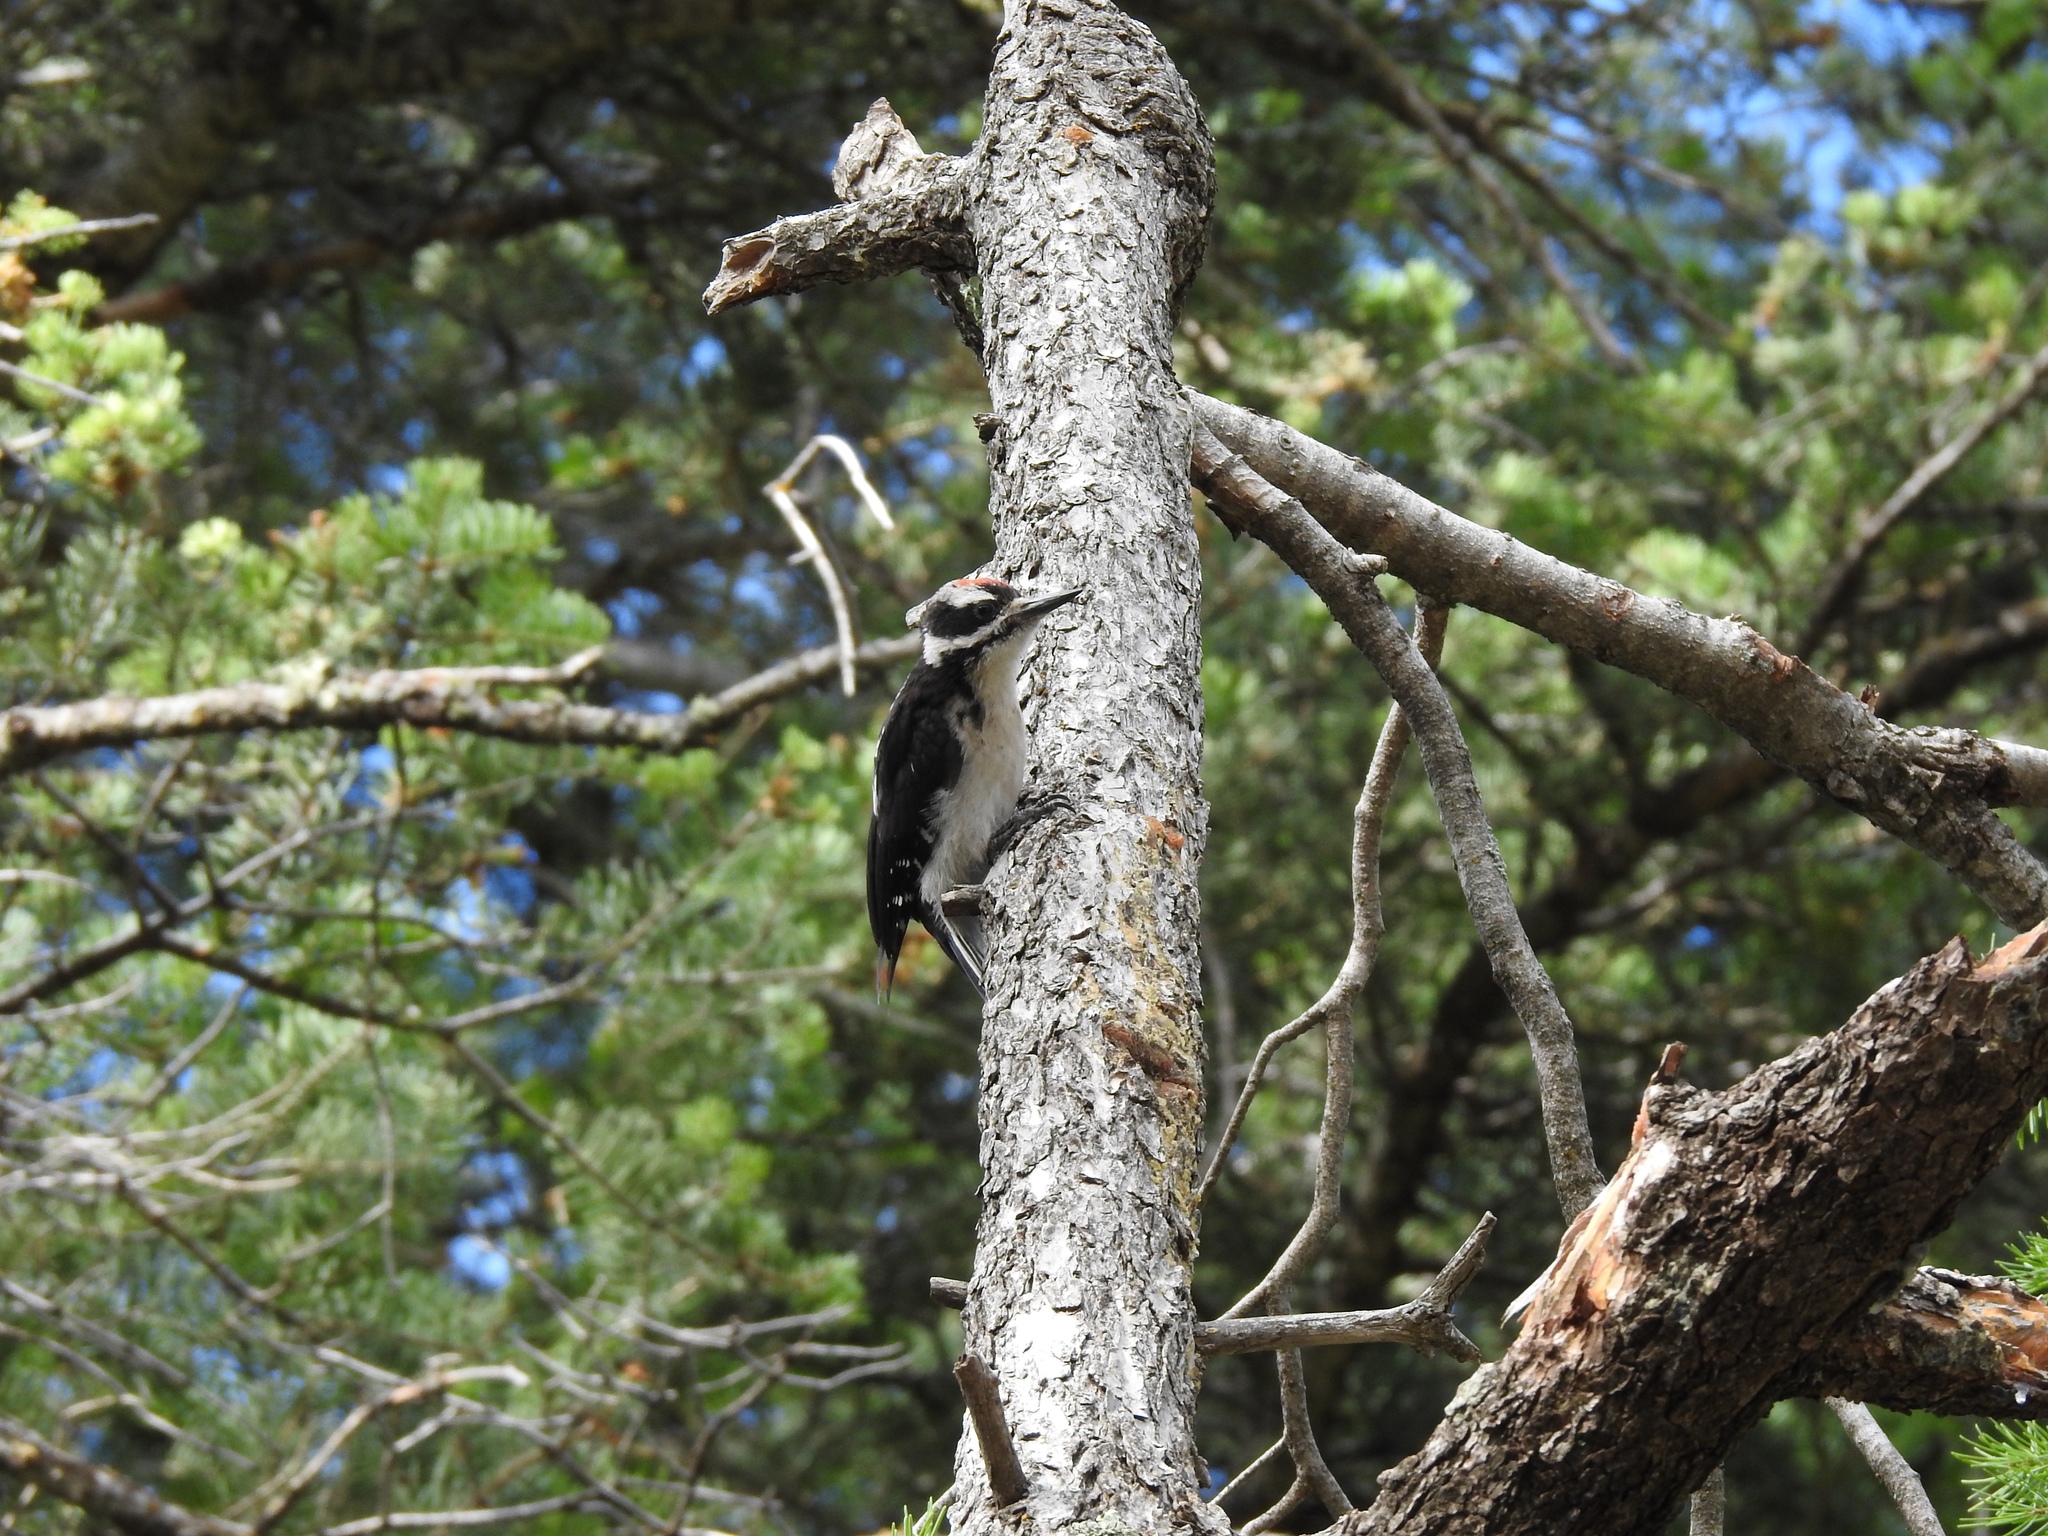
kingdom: Animalia
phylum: Chordata
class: Aves
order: Piciformes
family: Picidae
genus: Leuconotopicus
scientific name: Leuconotopicus villosus
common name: Hairy woodpecker
